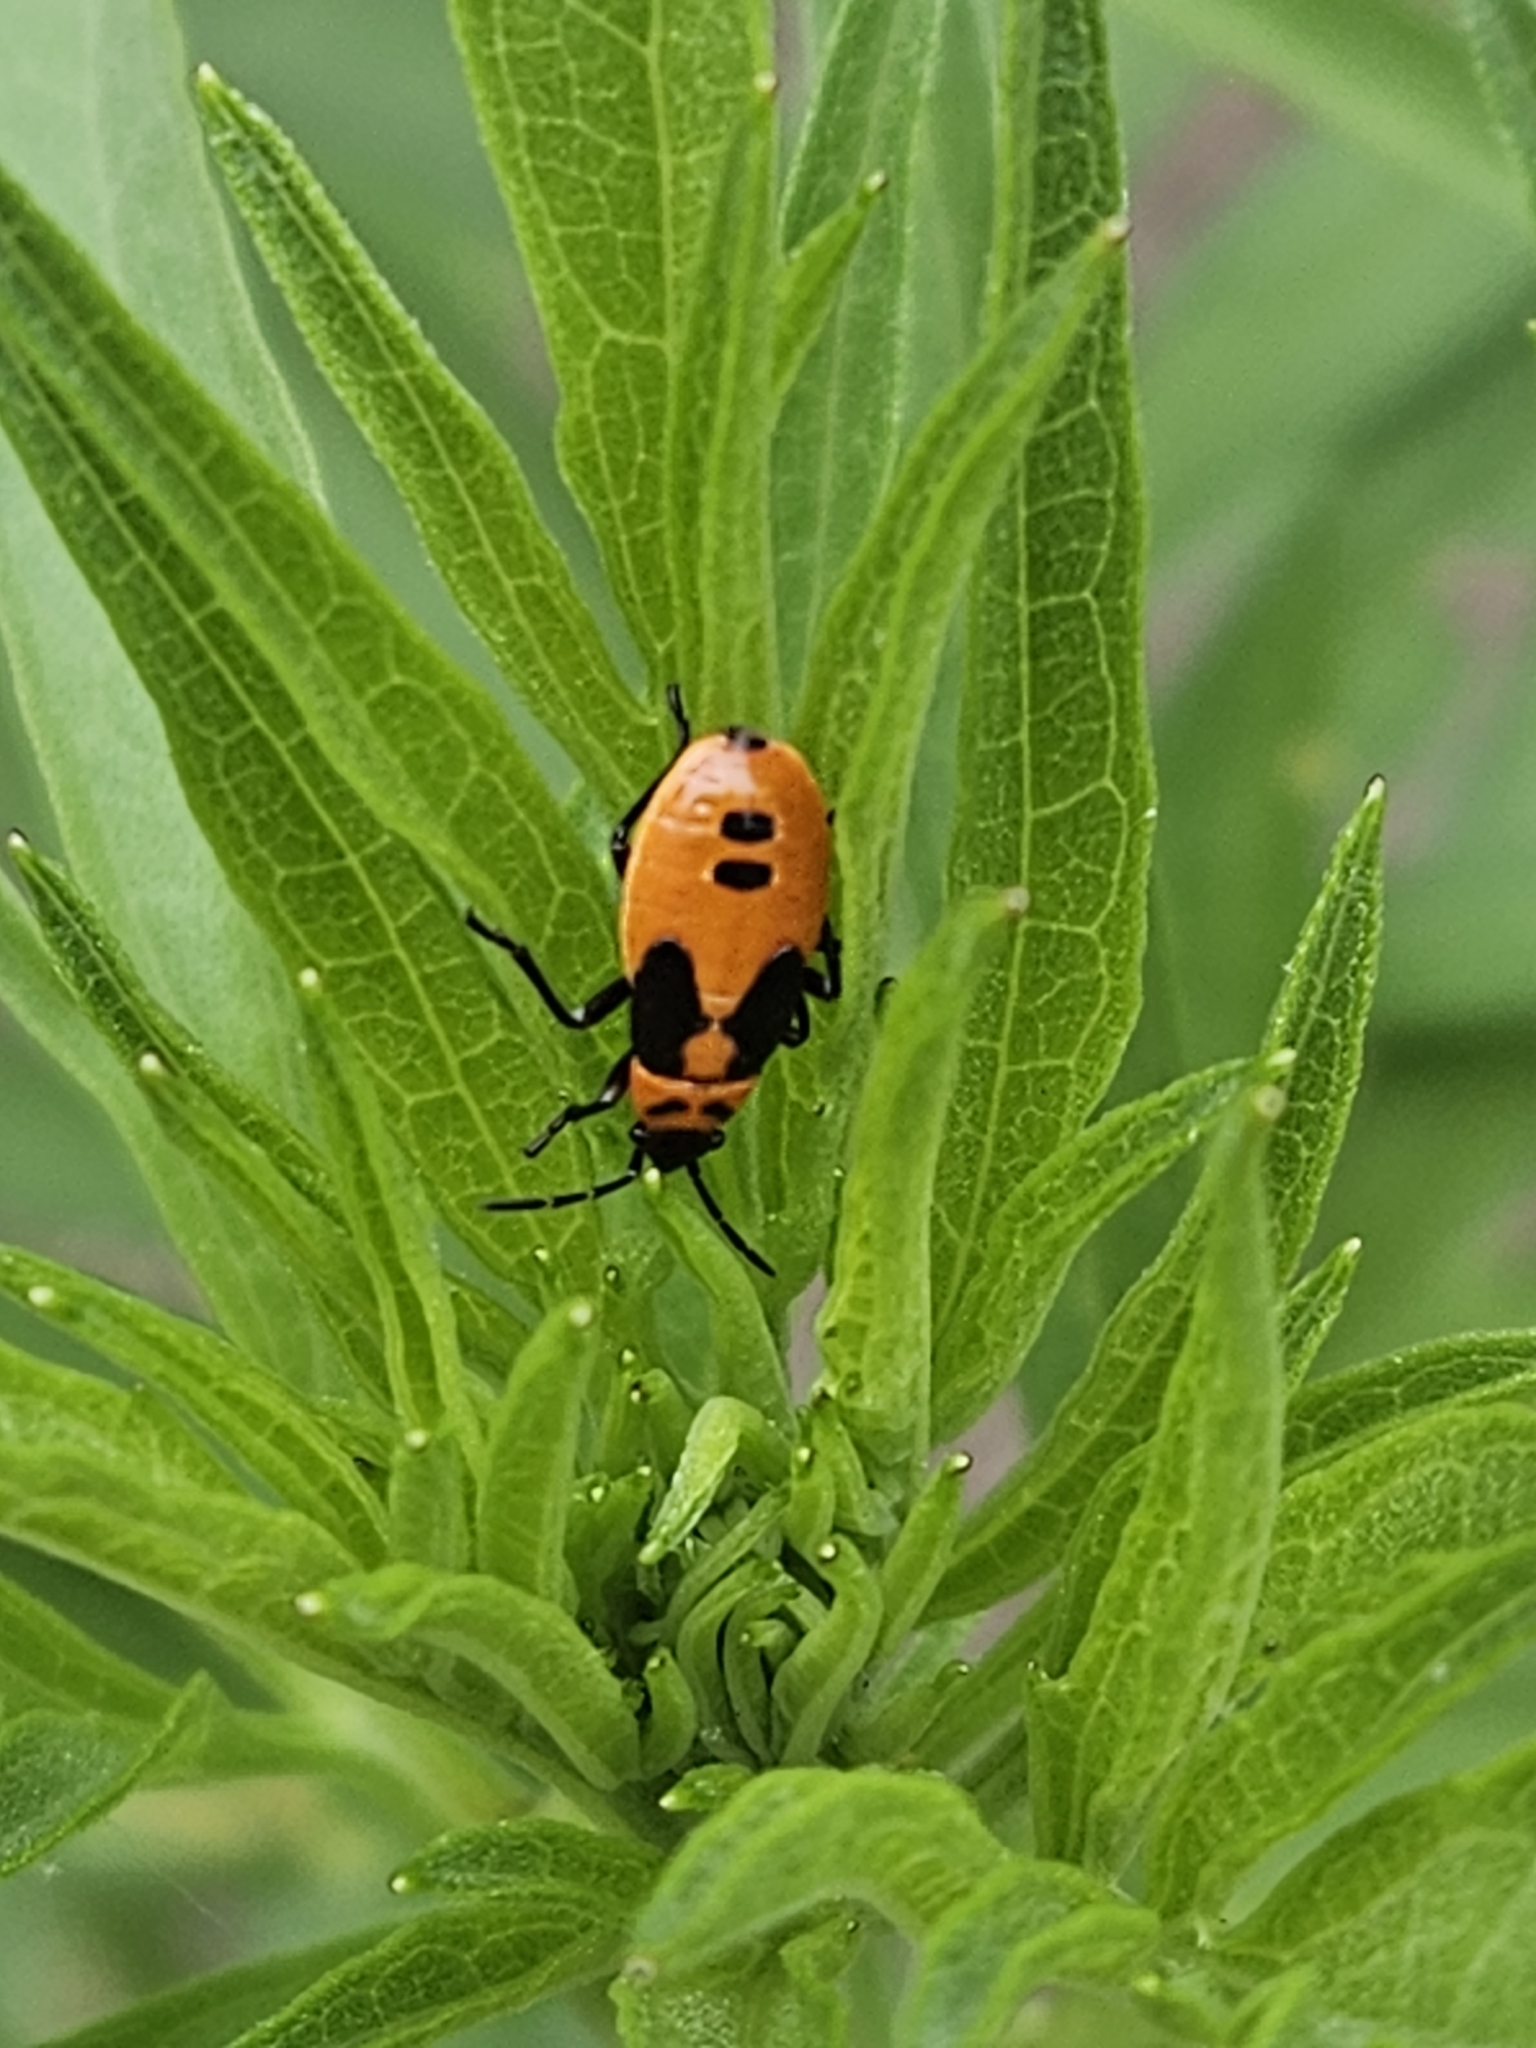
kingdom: Animalia
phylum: Arthropoda
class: Insecta
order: Hemiptera
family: Lygaeidae
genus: Lygaeus
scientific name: Lygaeus turcicus
